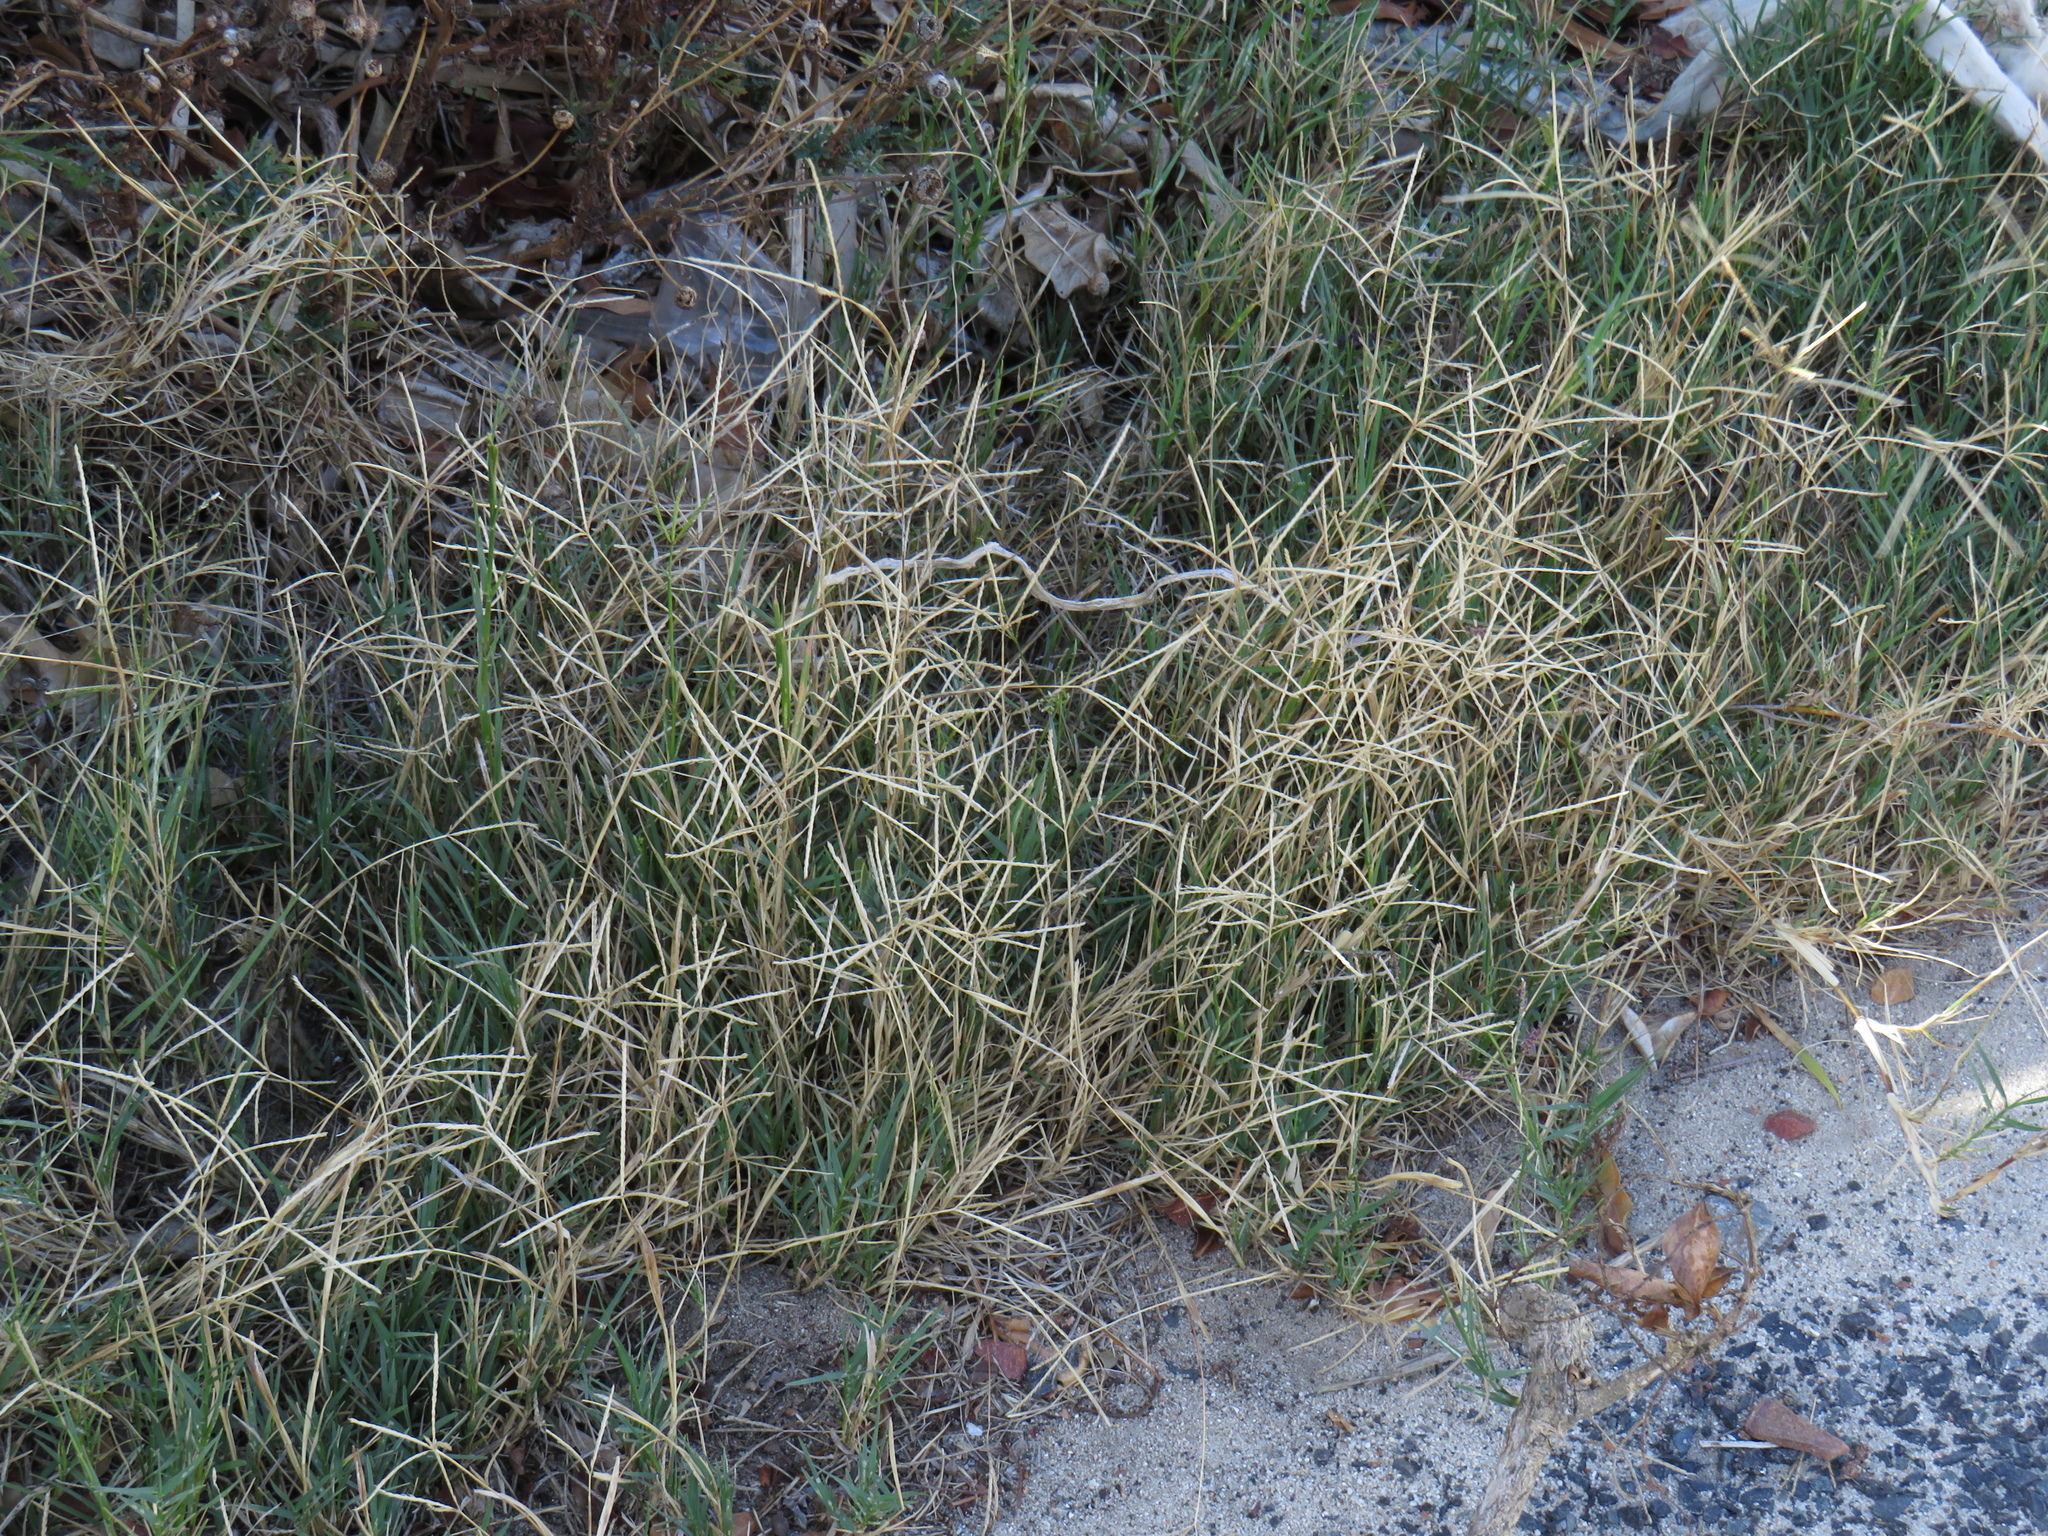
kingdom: Plantae
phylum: Tracheophyta
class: Liliopsida
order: Poales
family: Poaceae
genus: Cynodon
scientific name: Cynodon dactylon
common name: Bermuda grass
